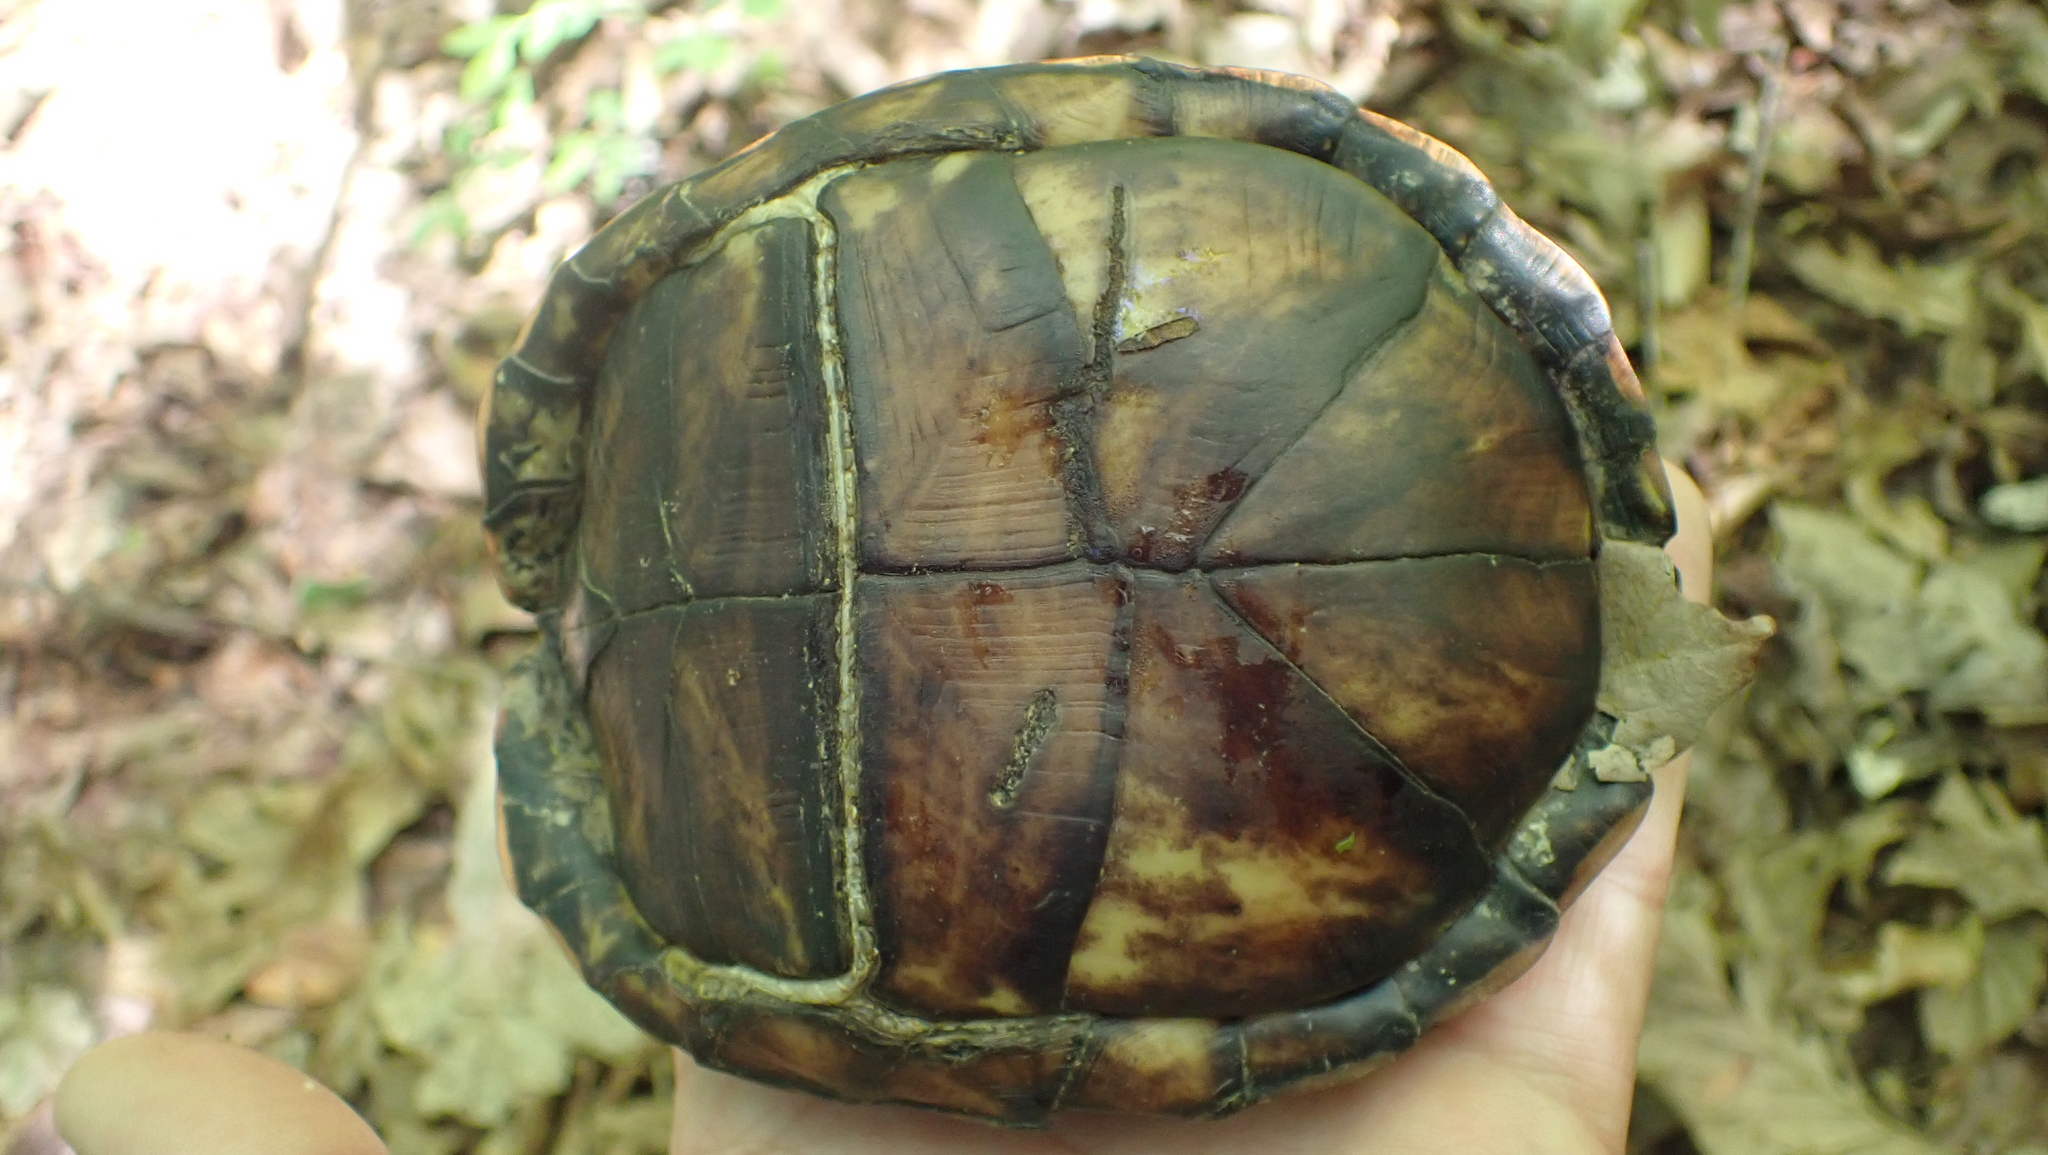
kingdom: Animalia
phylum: Chordata
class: Testudines
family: Emydidae
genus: Terrapene
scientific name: Terrapene carolina
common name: Common box turtle
